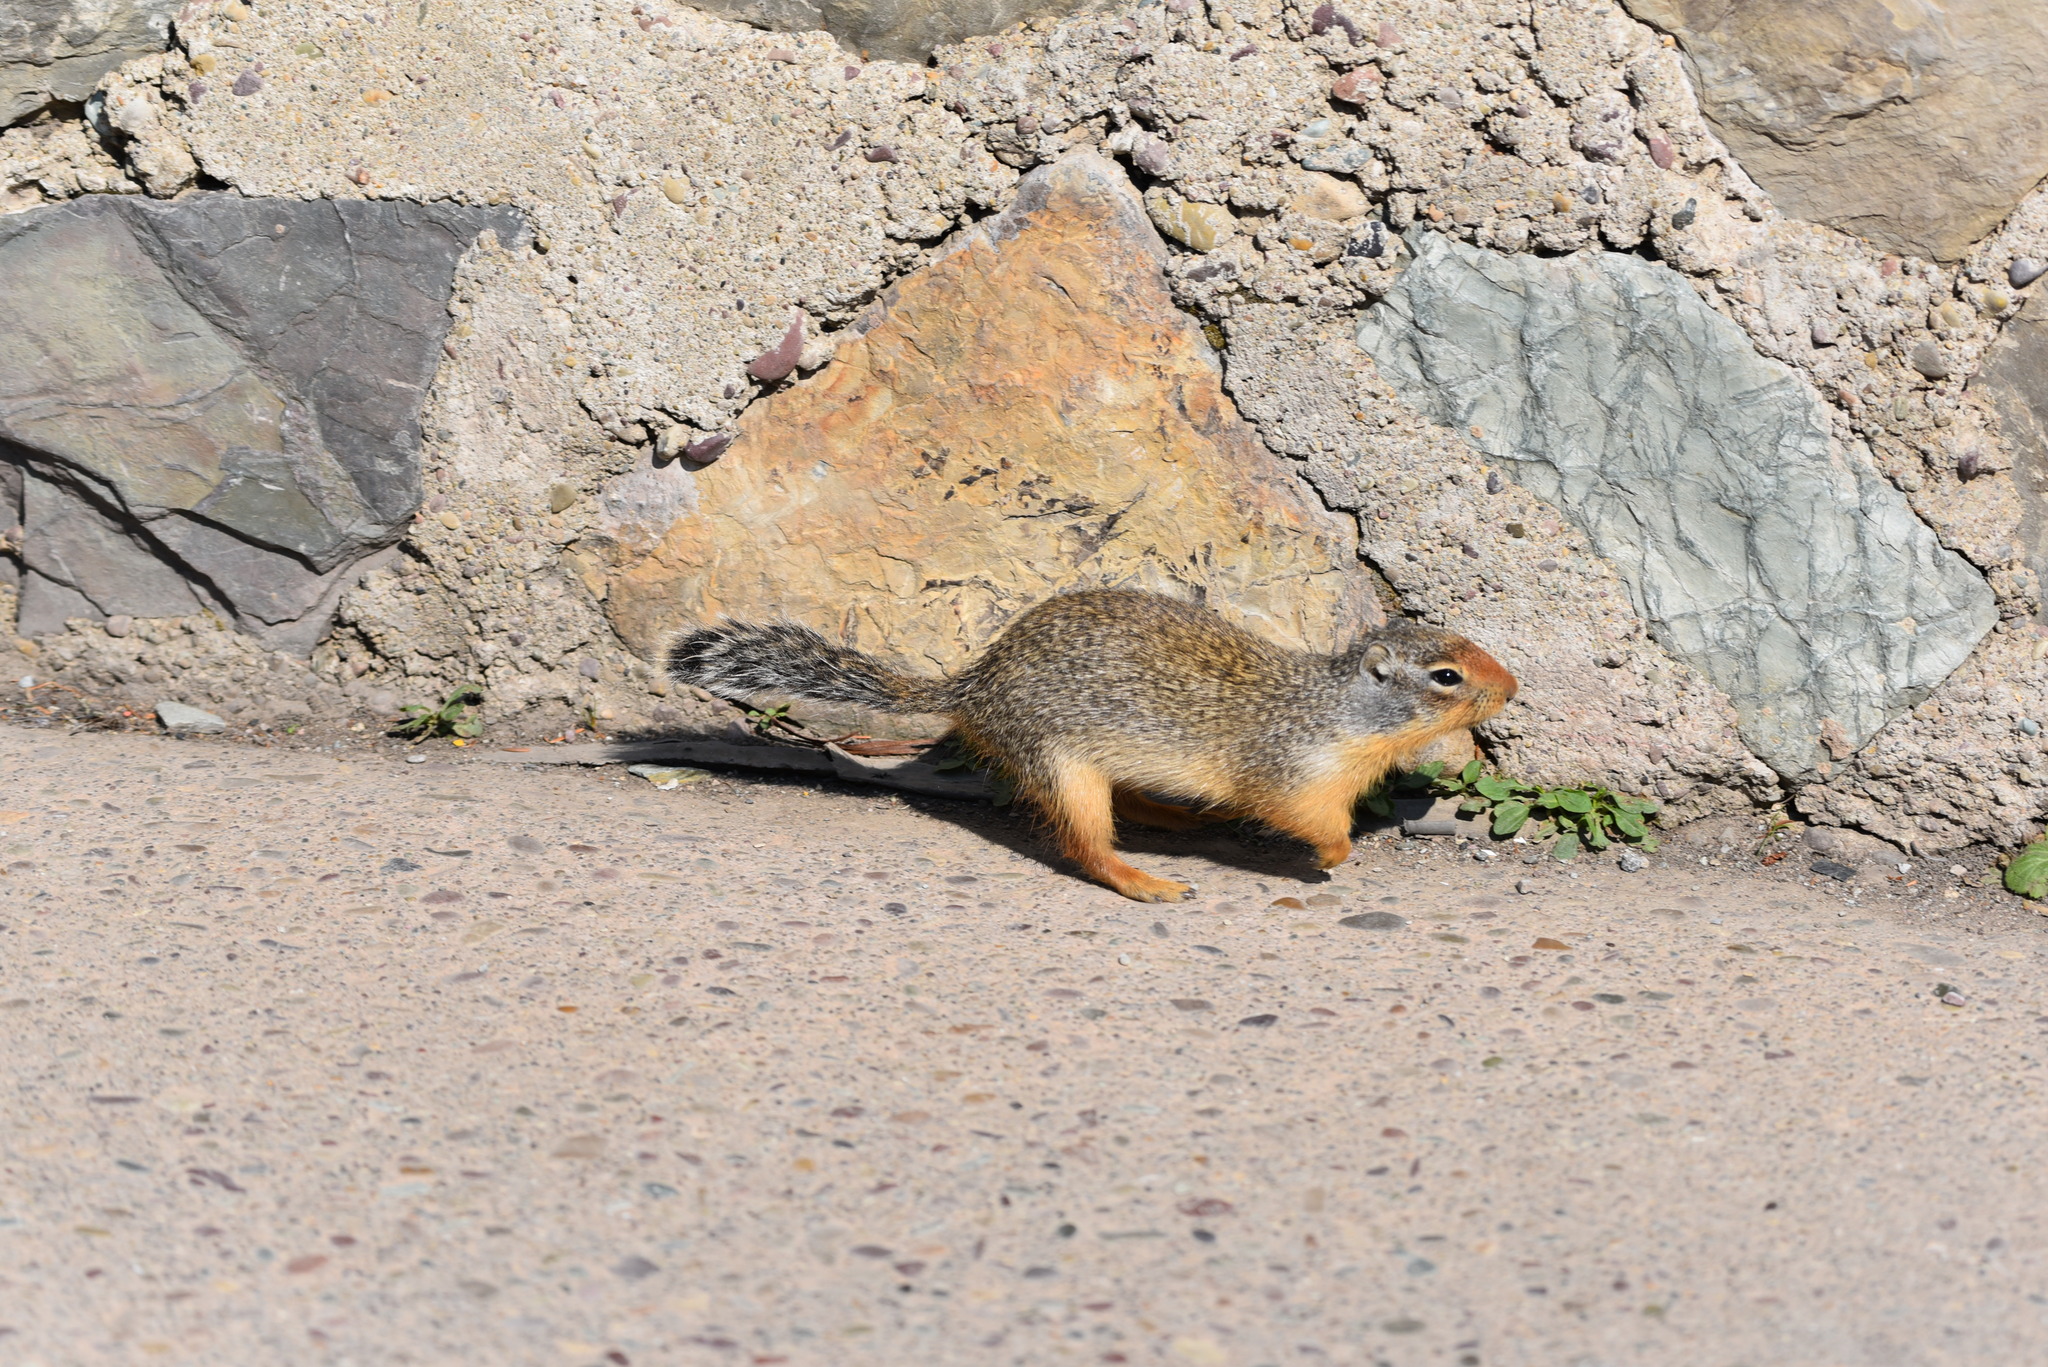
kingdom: Animalia
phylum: Chordata
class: Mammalia
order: Rodentia
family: Sciuridae
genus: Urocitellus
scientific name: Urocitellus columbianus
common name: Columbian ground squirrel
